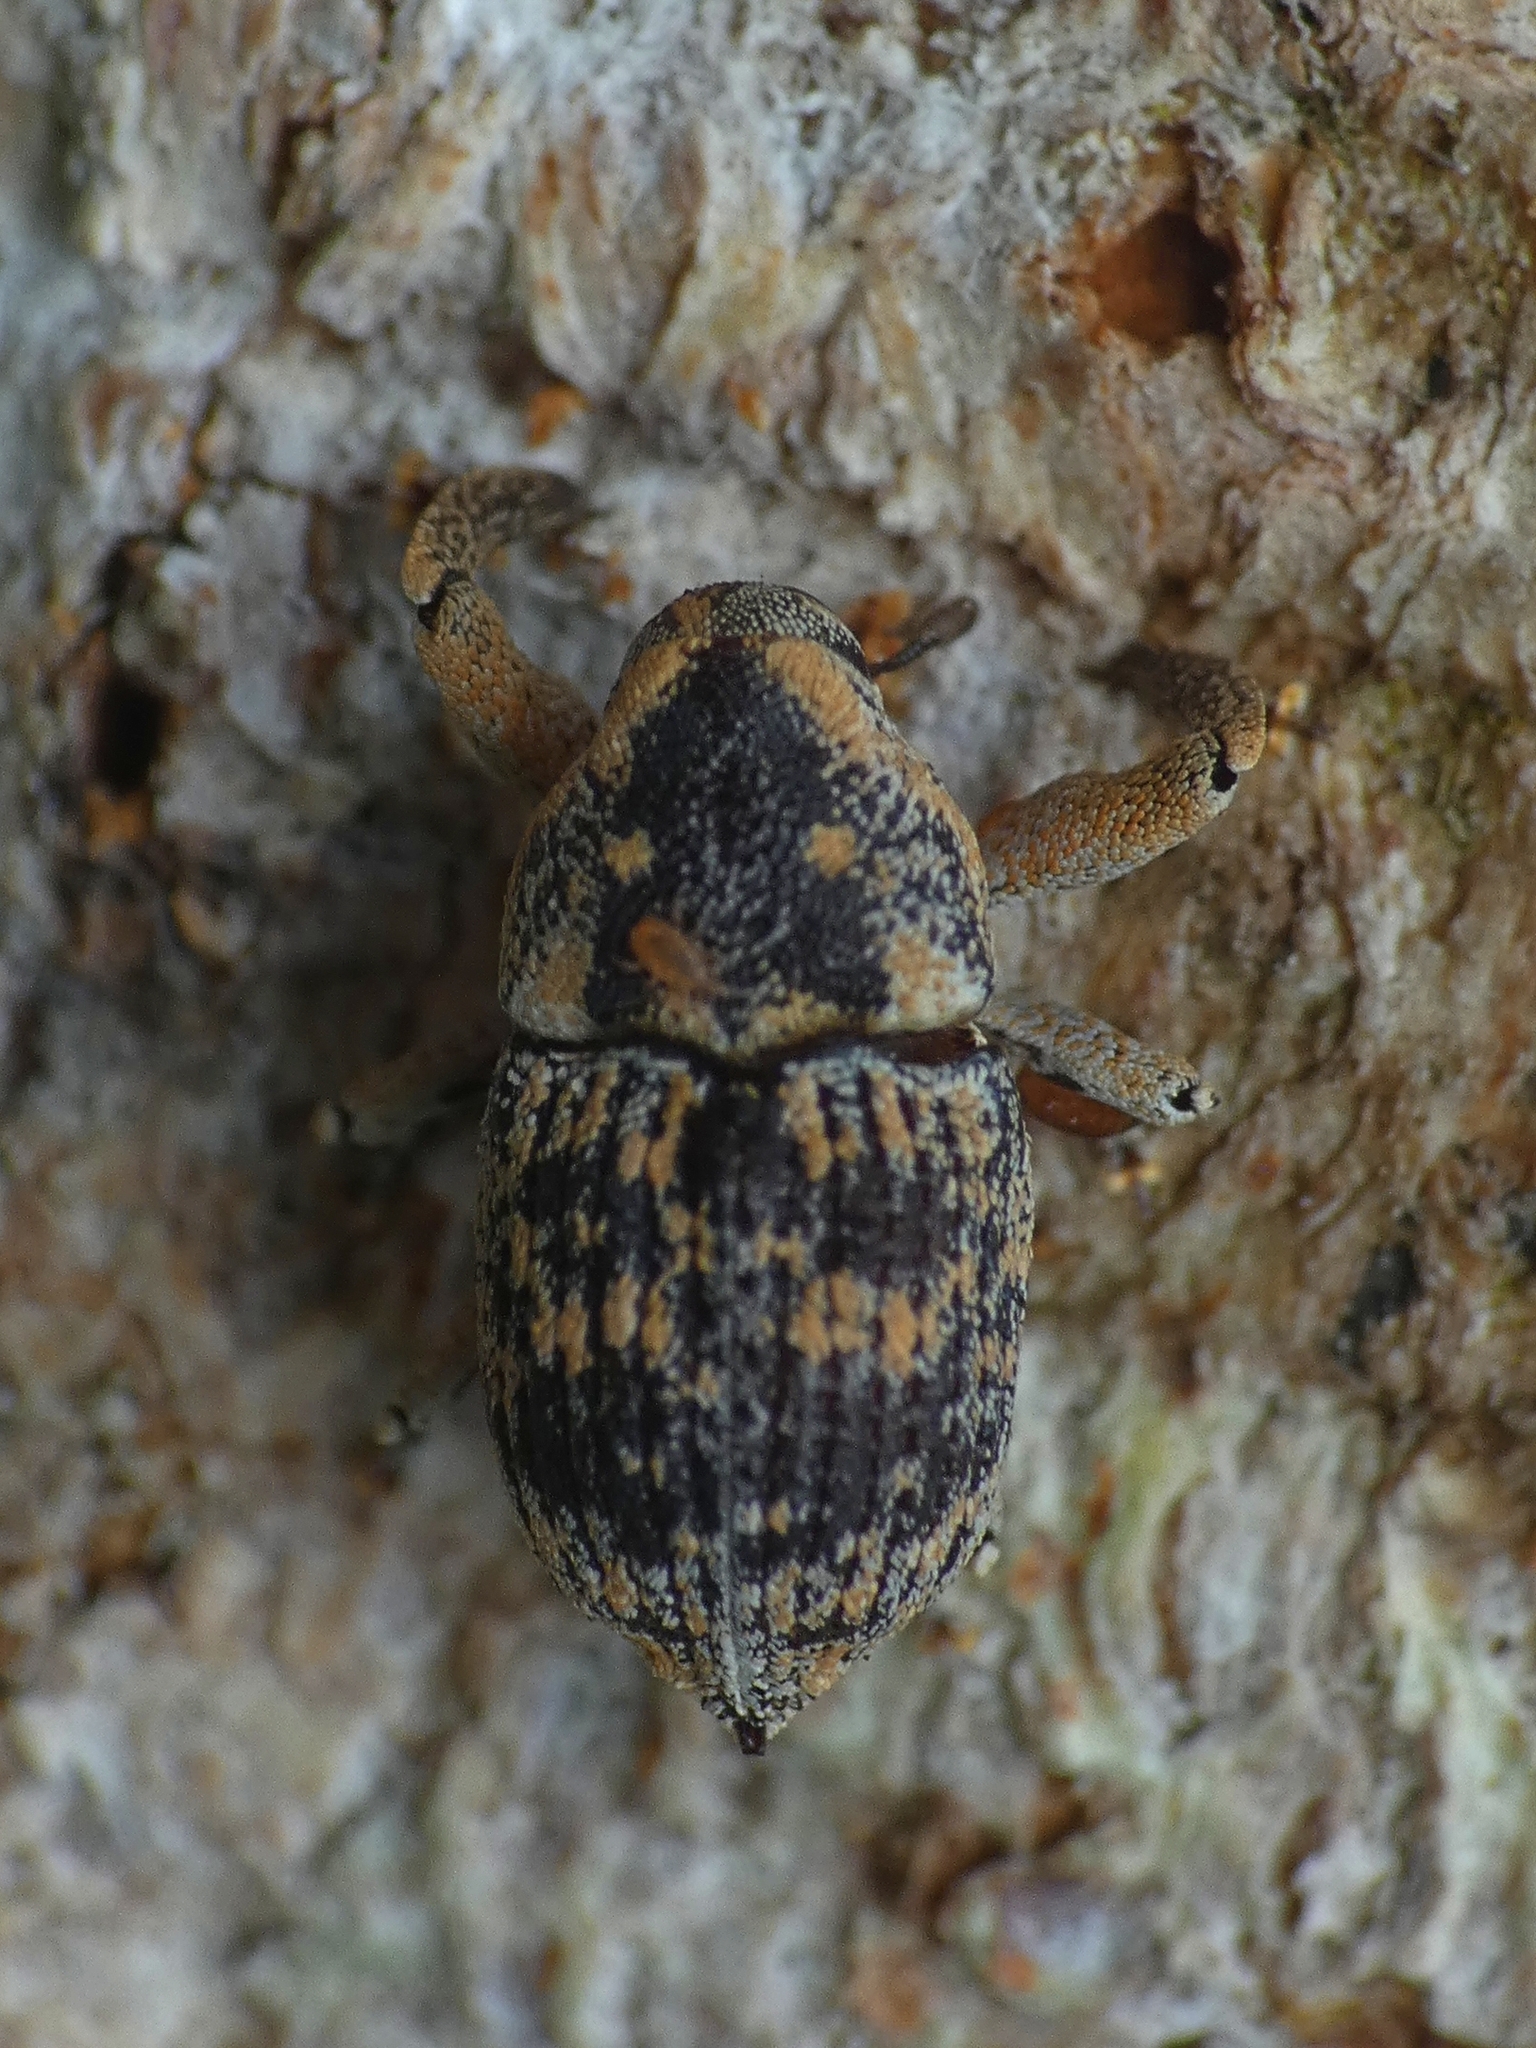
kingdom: Animalia
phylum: Arthropoda
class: Insecta
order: Coleoptera
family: Curculionidae
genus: Eutyrhinus
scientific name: Eutyrhinus meditabundus
